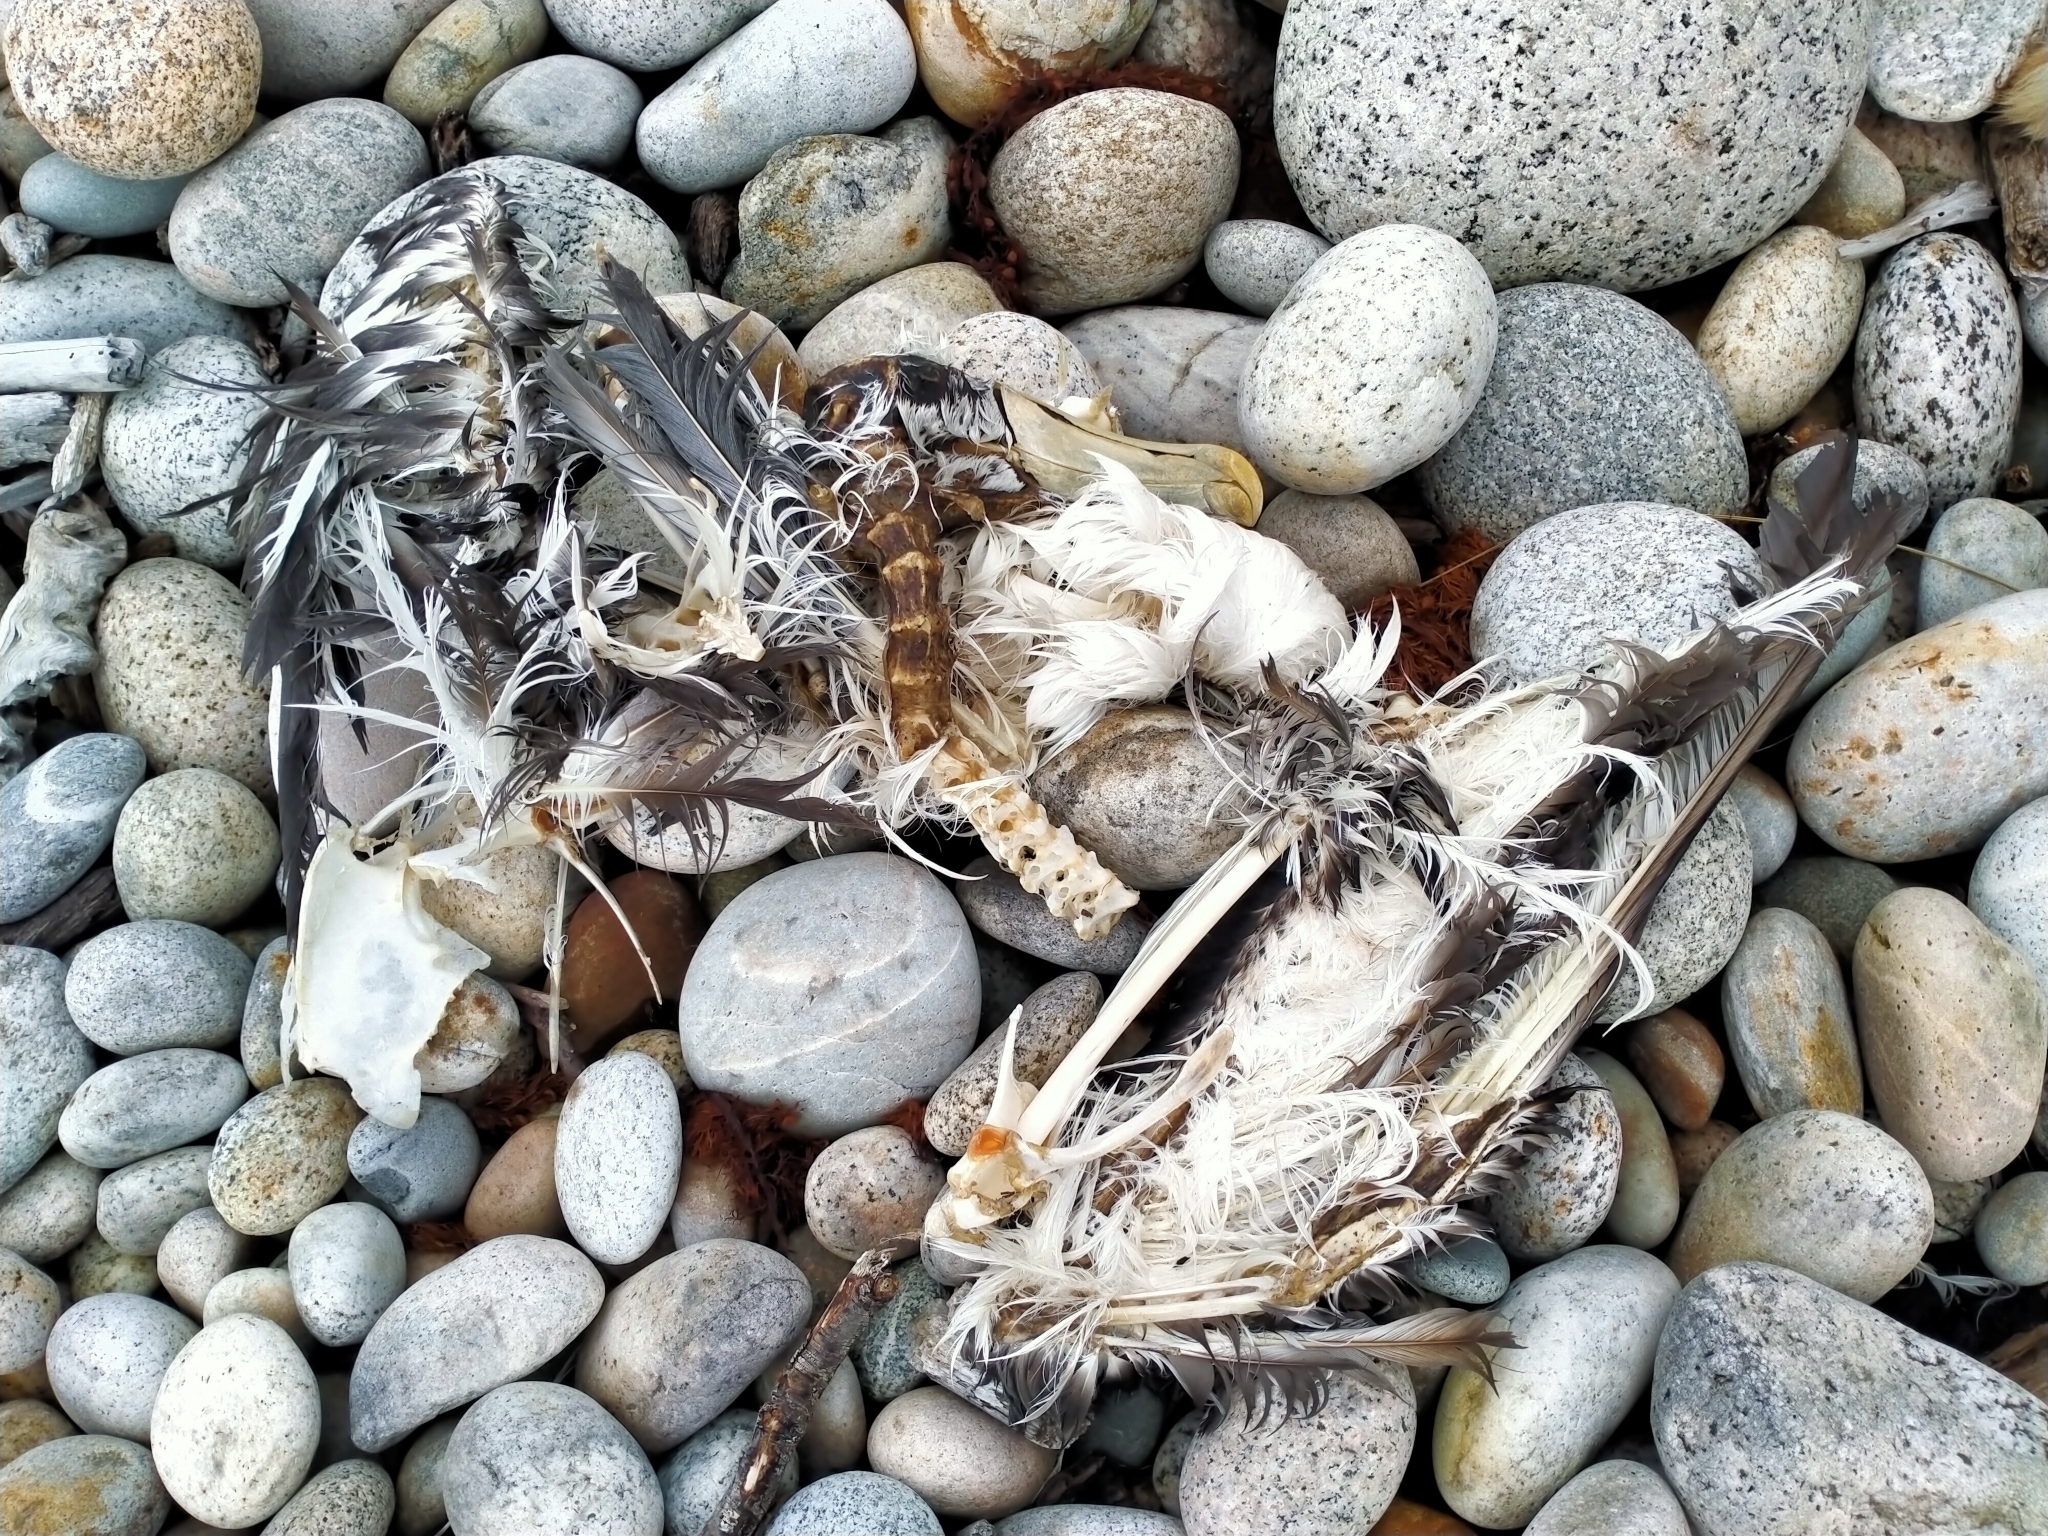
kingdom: Animalia
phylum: Chordata
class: Aves
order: Procellariiformes
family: Diomedeidae
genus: Thalassarche
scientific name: Thalassarche cauta
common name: Shy albatross
